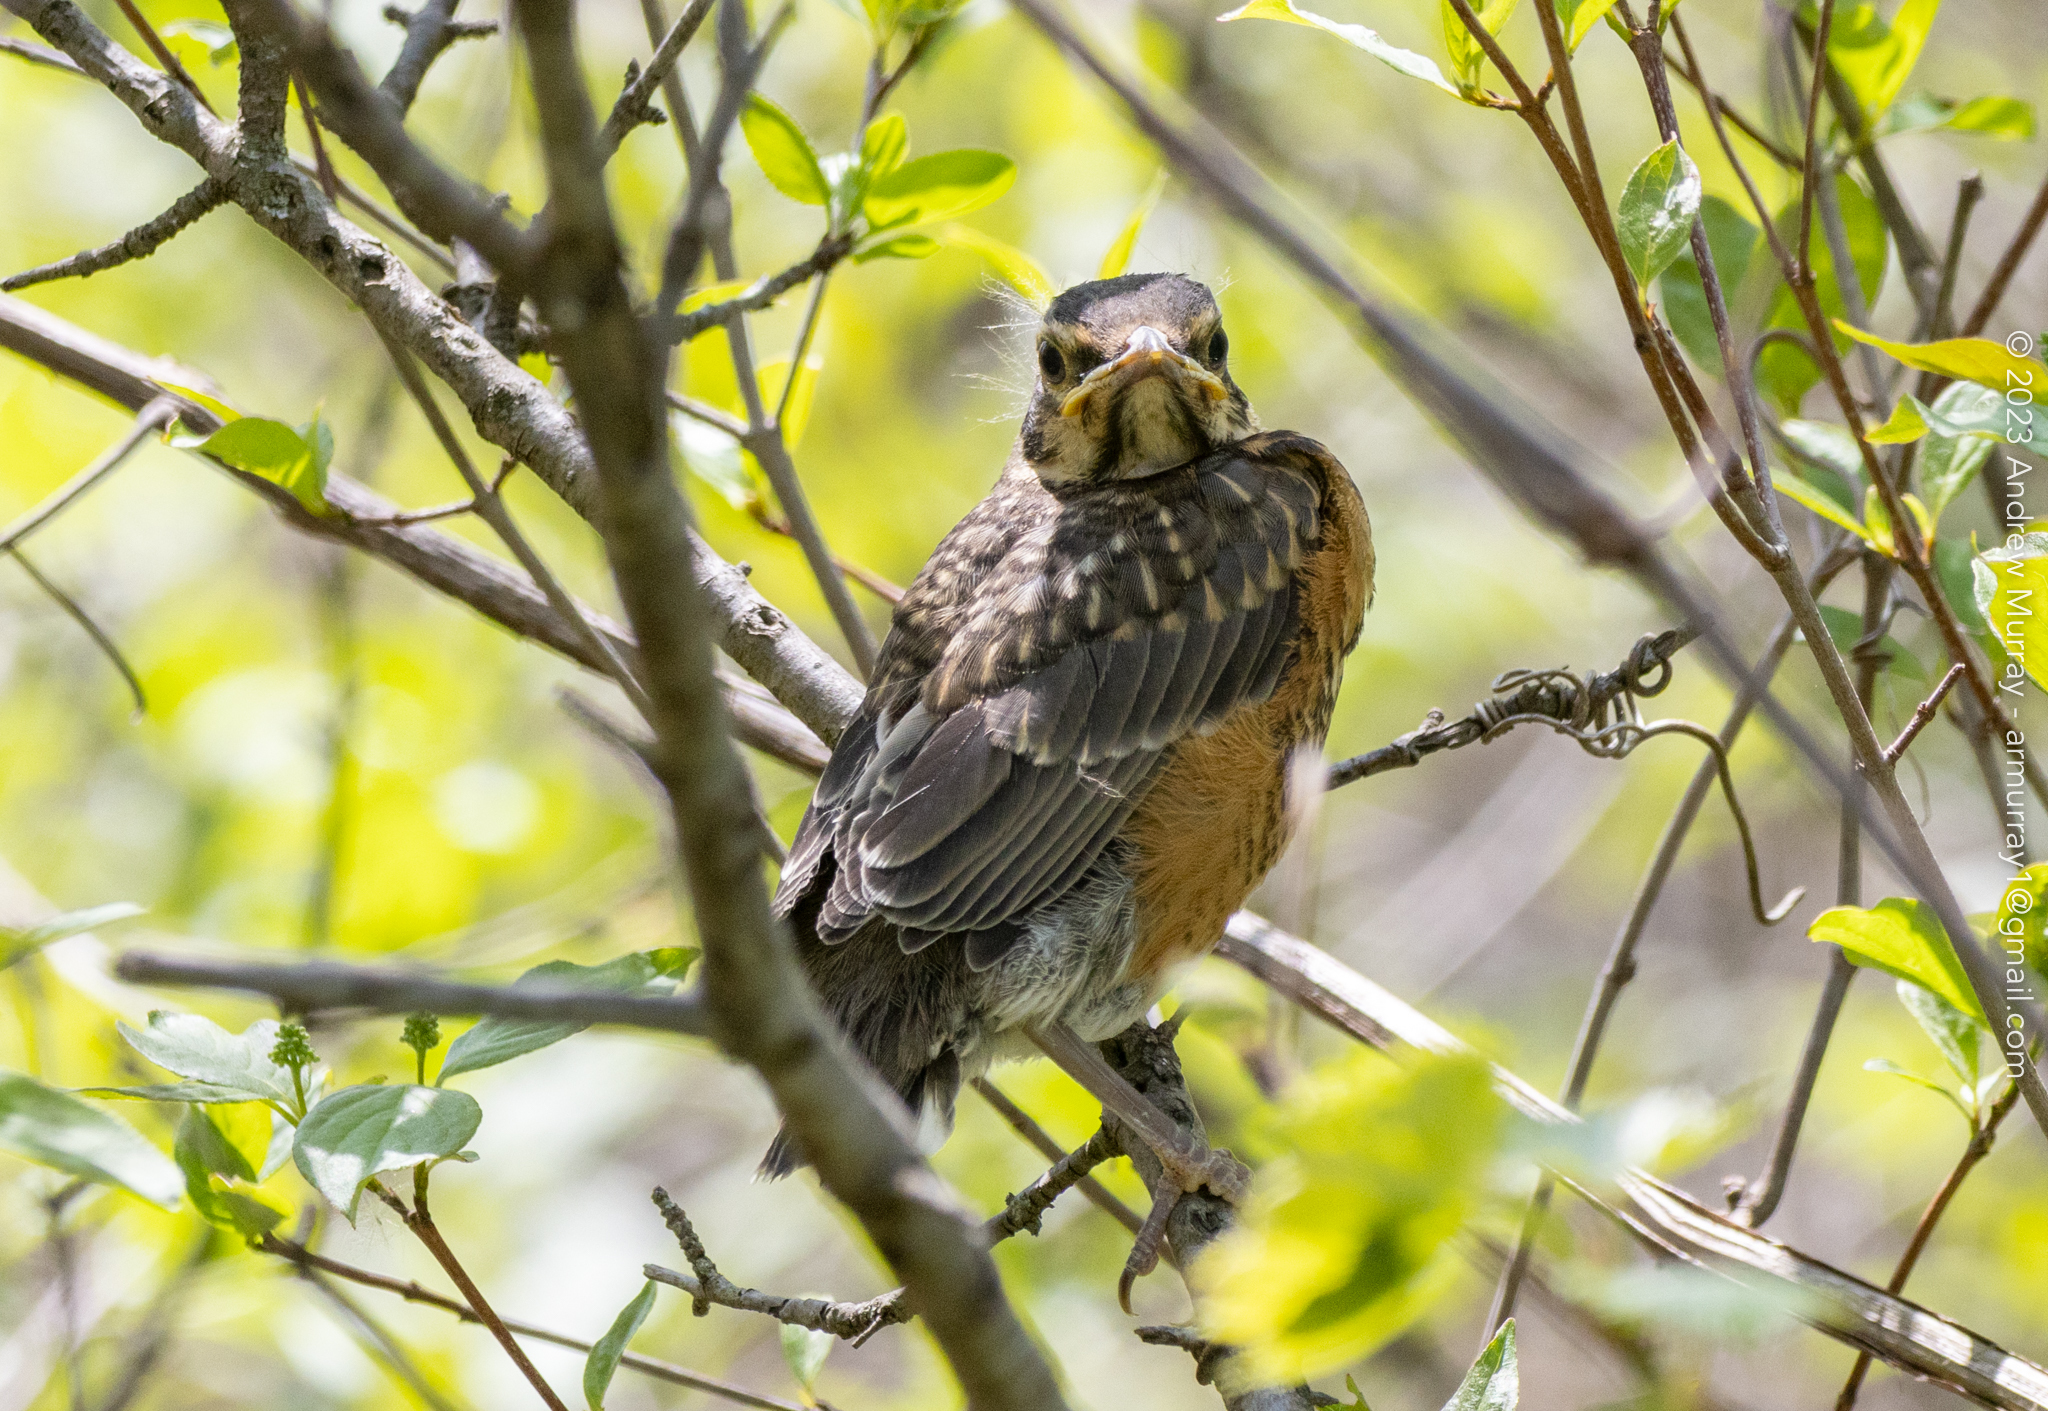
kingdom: Animalia
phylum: Chordata
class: Aves
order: Passeriformes
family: Turdidae
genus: Turdus
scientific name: Turdus migratorius
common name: American robin
